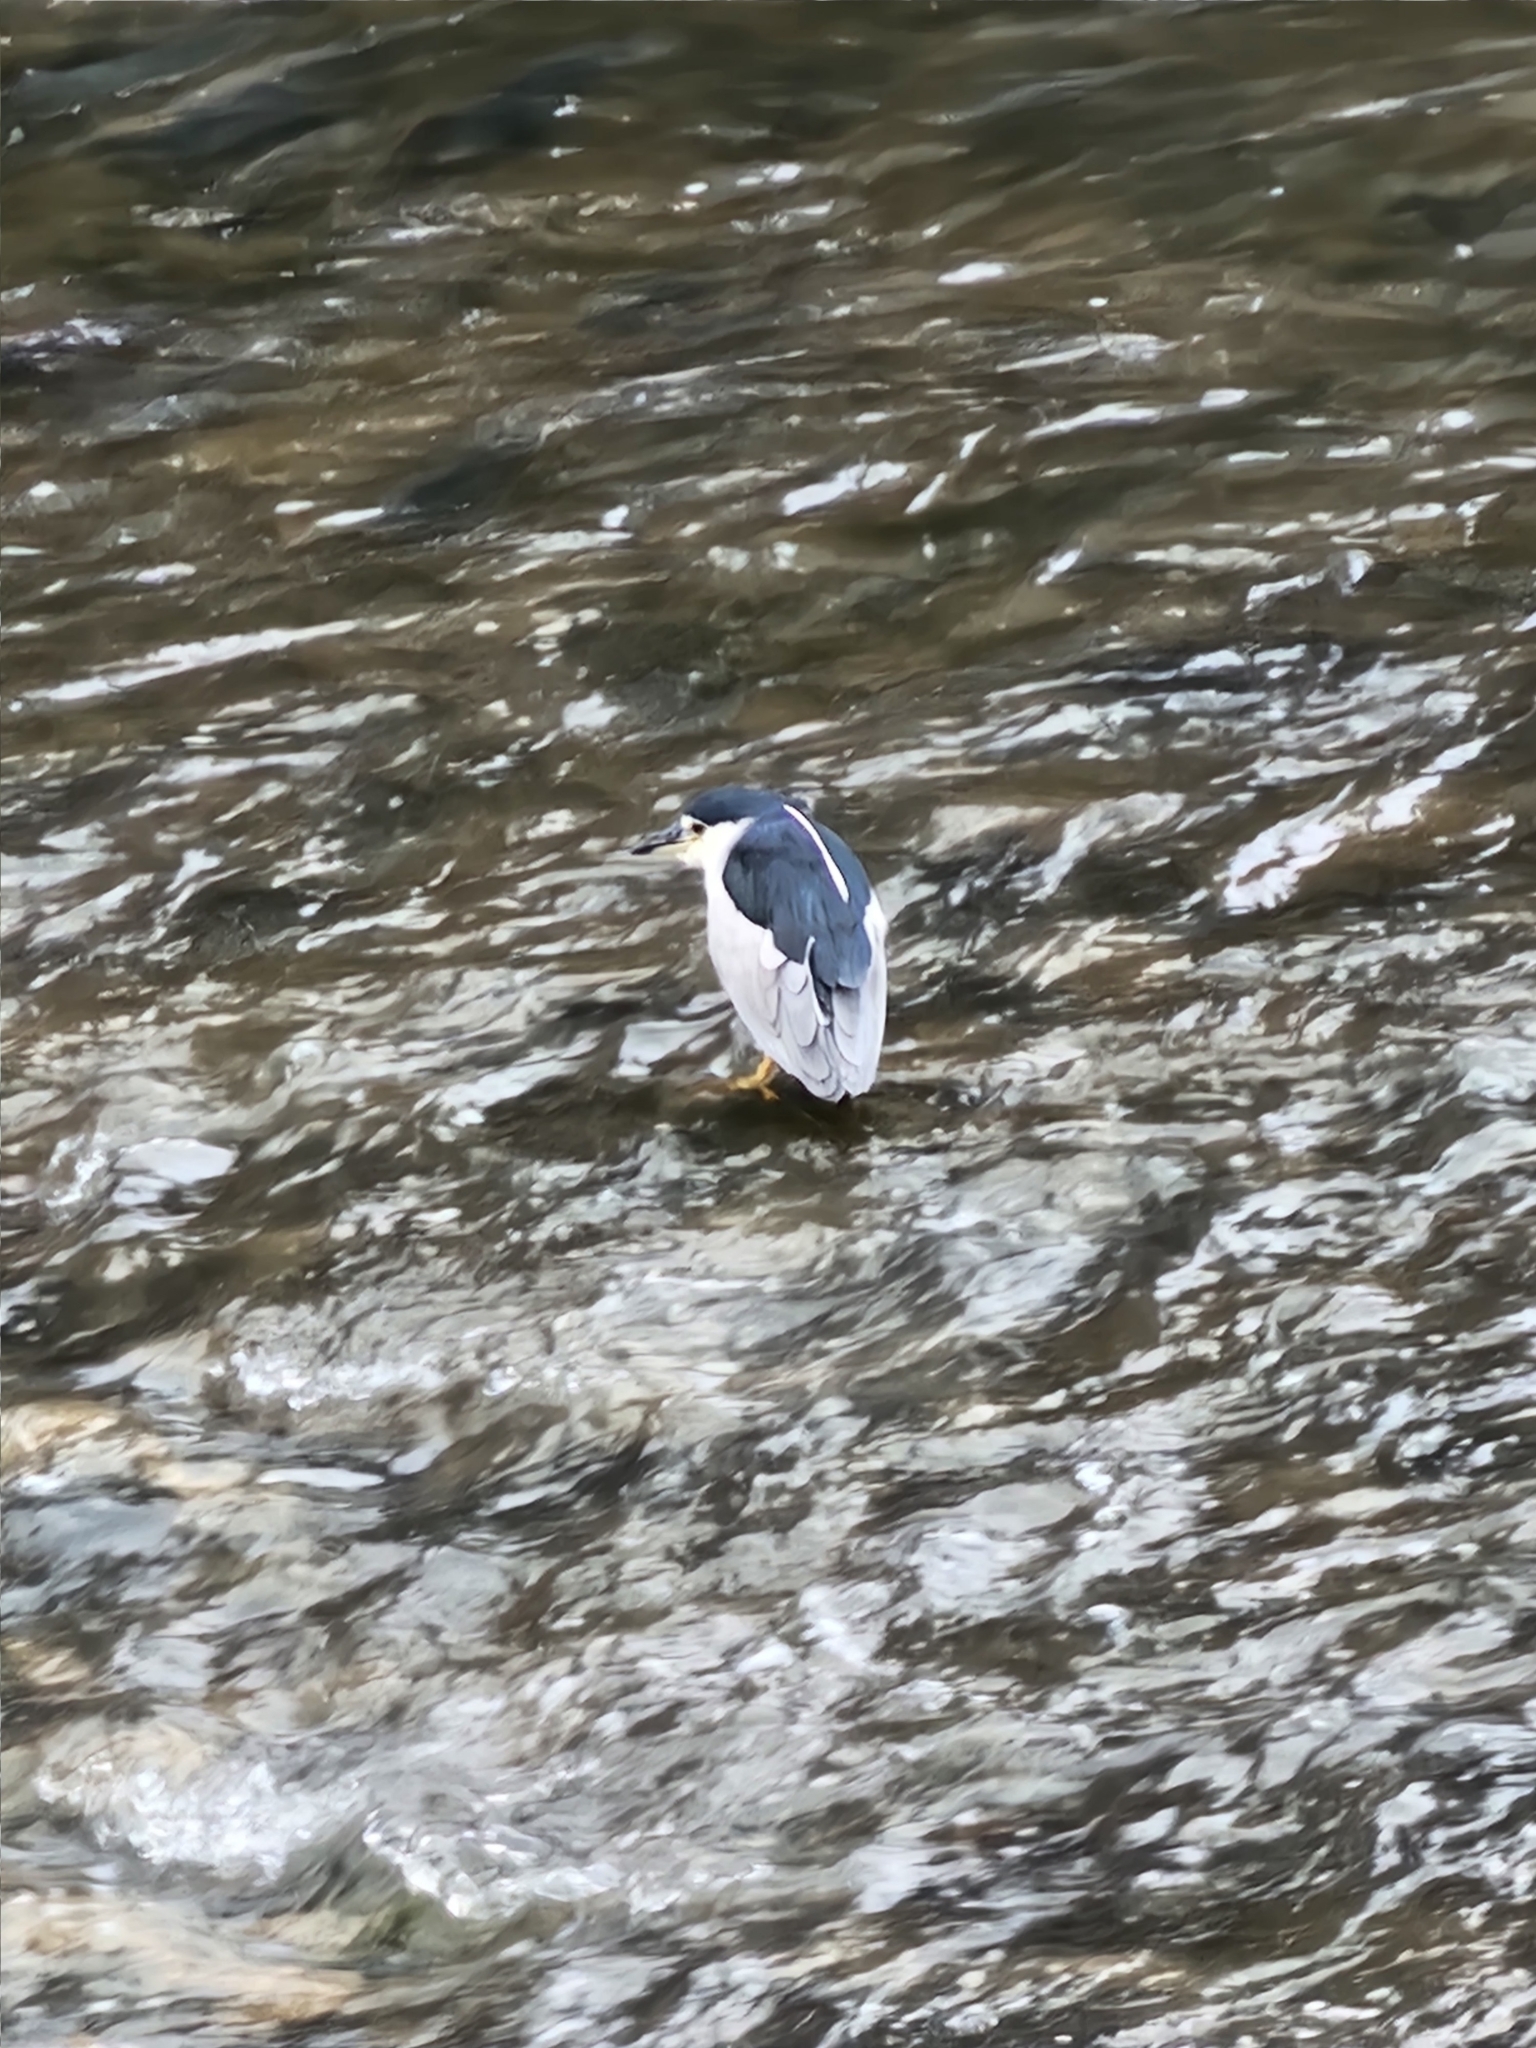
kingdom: Animalia
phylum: Chordata
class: Aves
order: Pelecaniformes
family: Ardeidae
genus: Nycticorax
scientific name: Nycticorax nycticorax
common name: Black-crowned night heron
